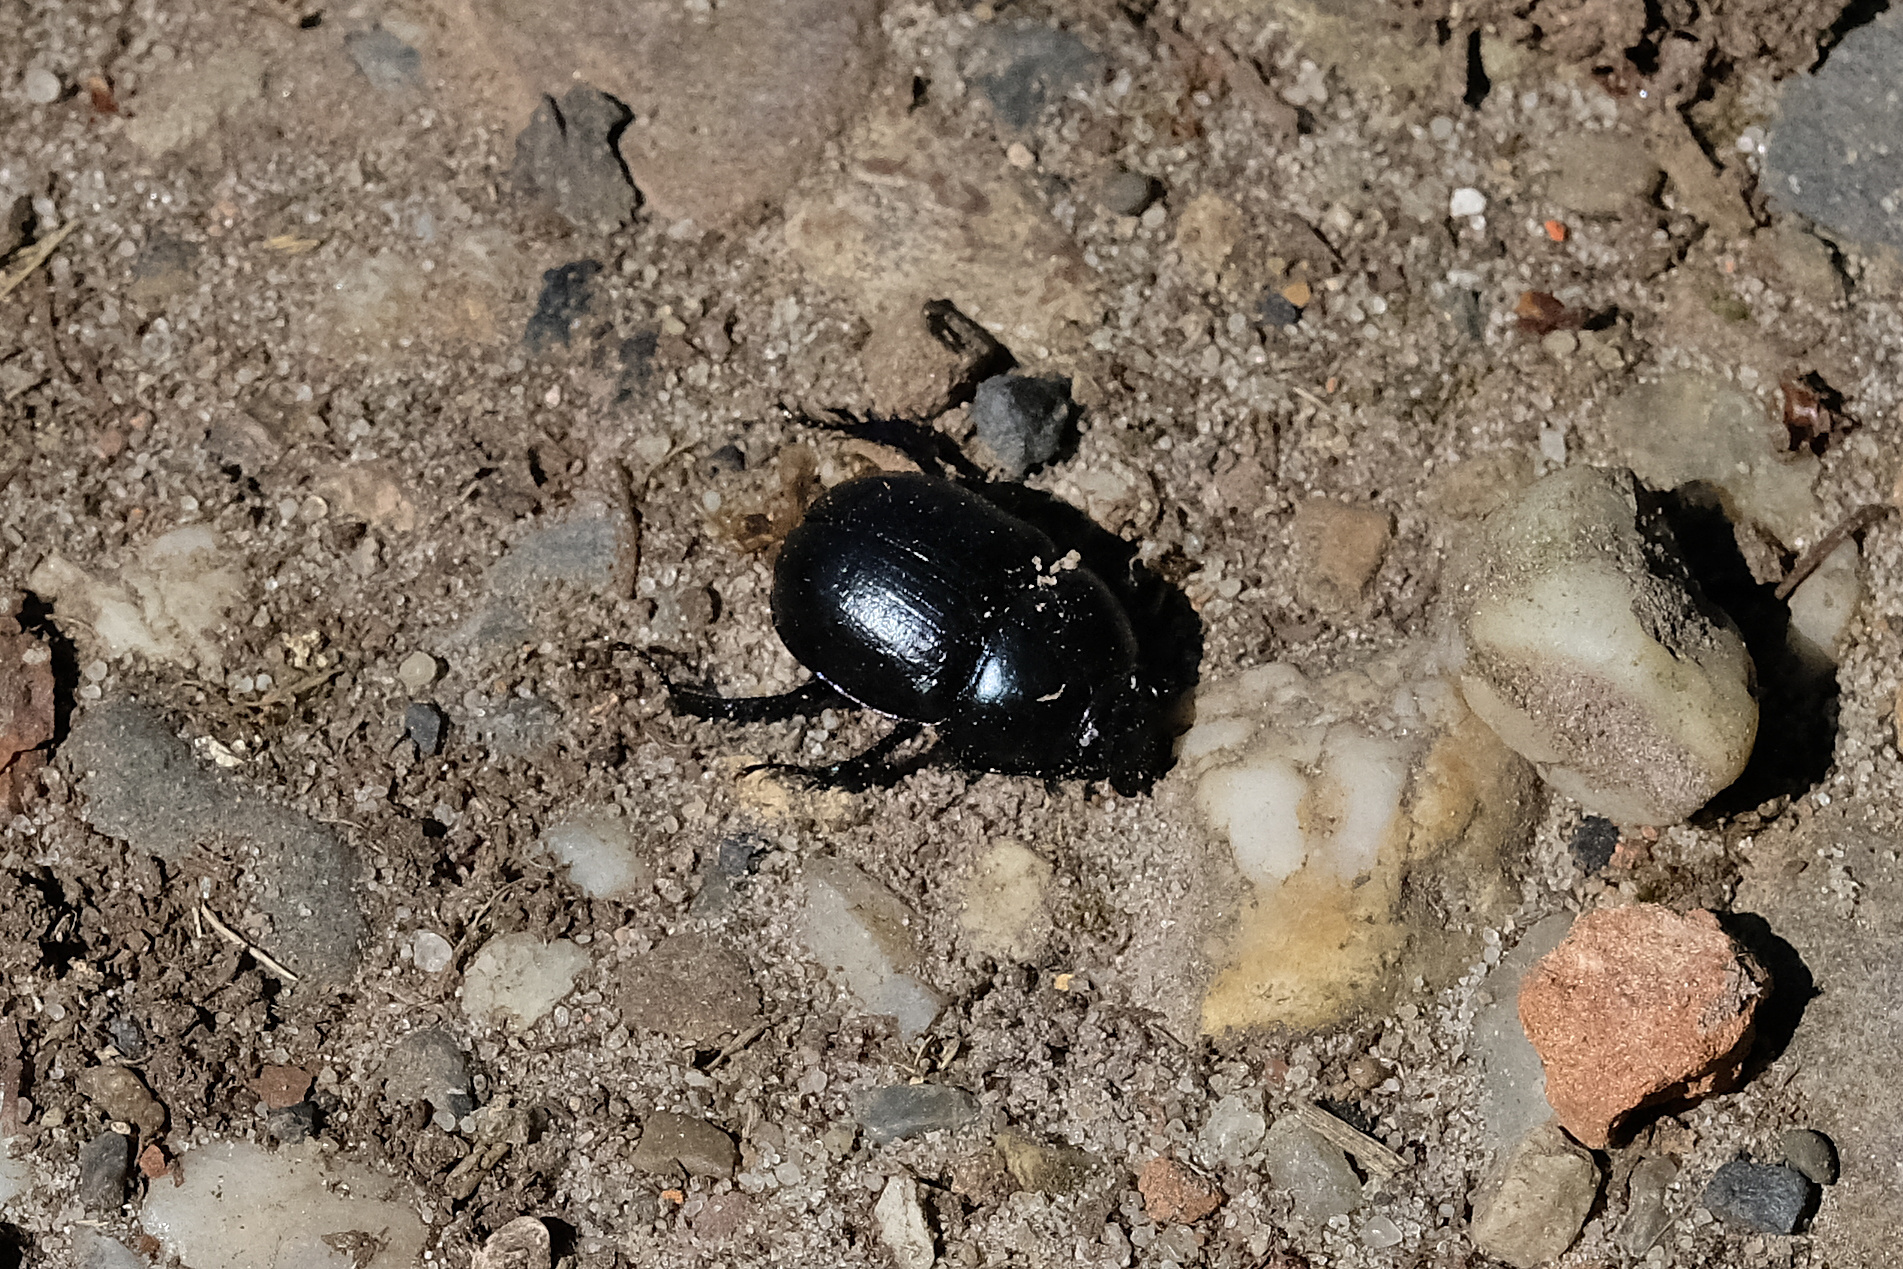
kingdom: Animalia
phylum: Arthropoda
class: Insecta
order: Coleoptera
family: Geotrupidae
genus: Anoplotrupes
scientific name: Anoplotrupes stercorosus
